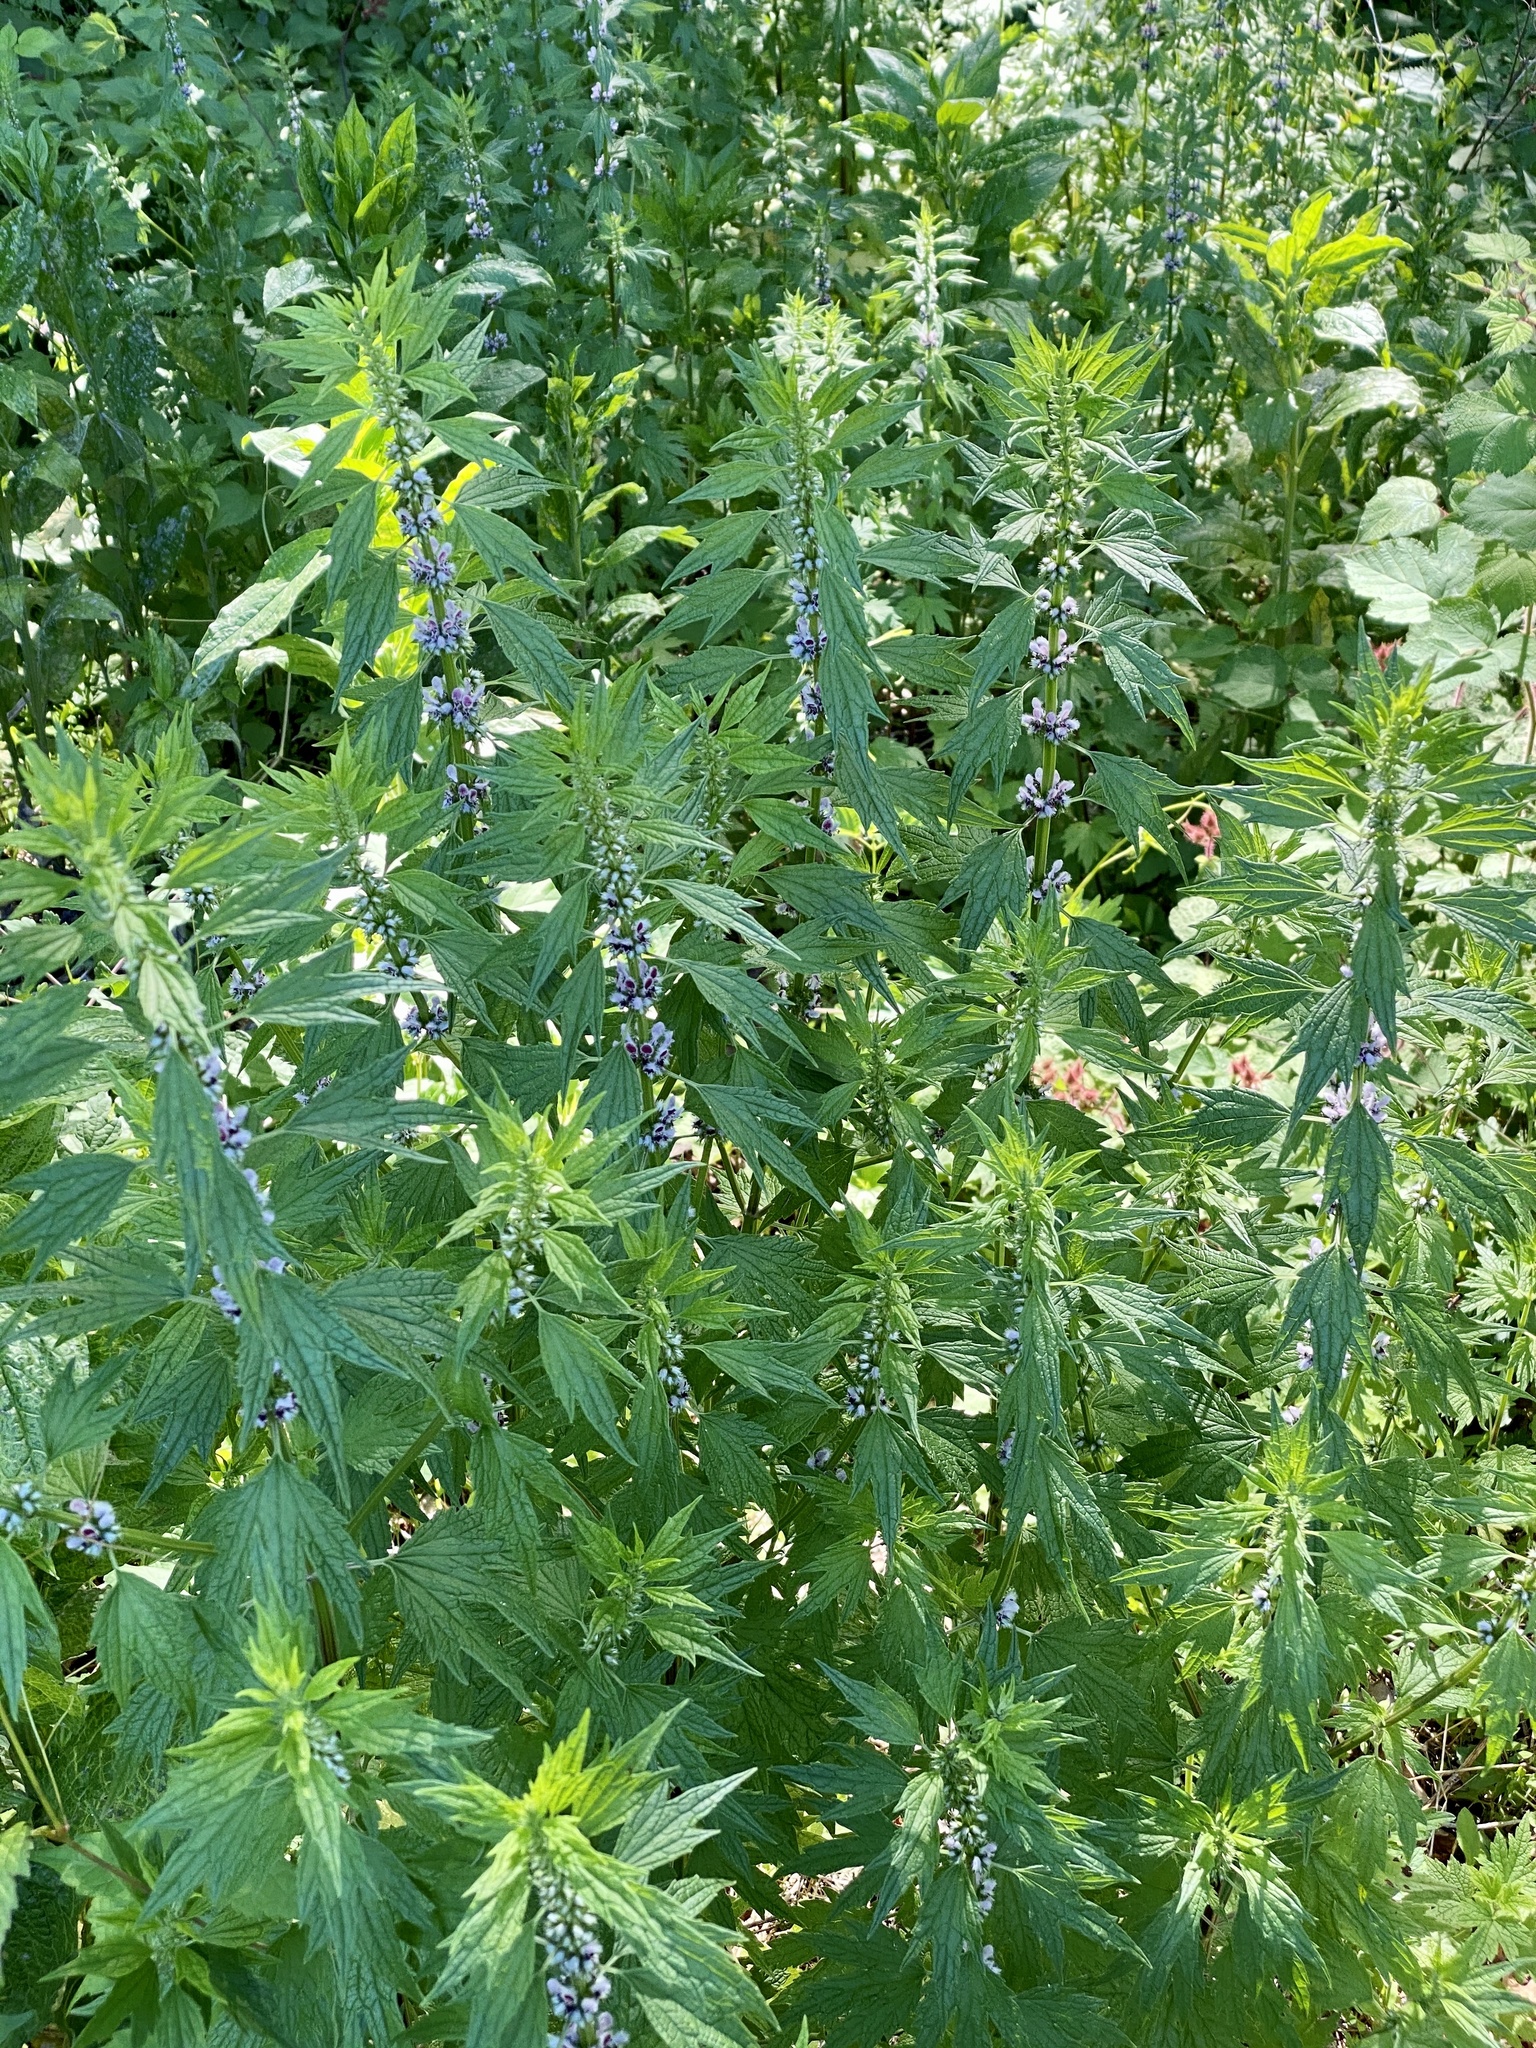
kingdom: Plantae
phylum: Tracheophyta
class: Magnoliopsida
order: Lamiales
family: Lamiaceae
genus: Leonurus
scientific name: Leonurus cardiaca
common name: Motherwort
